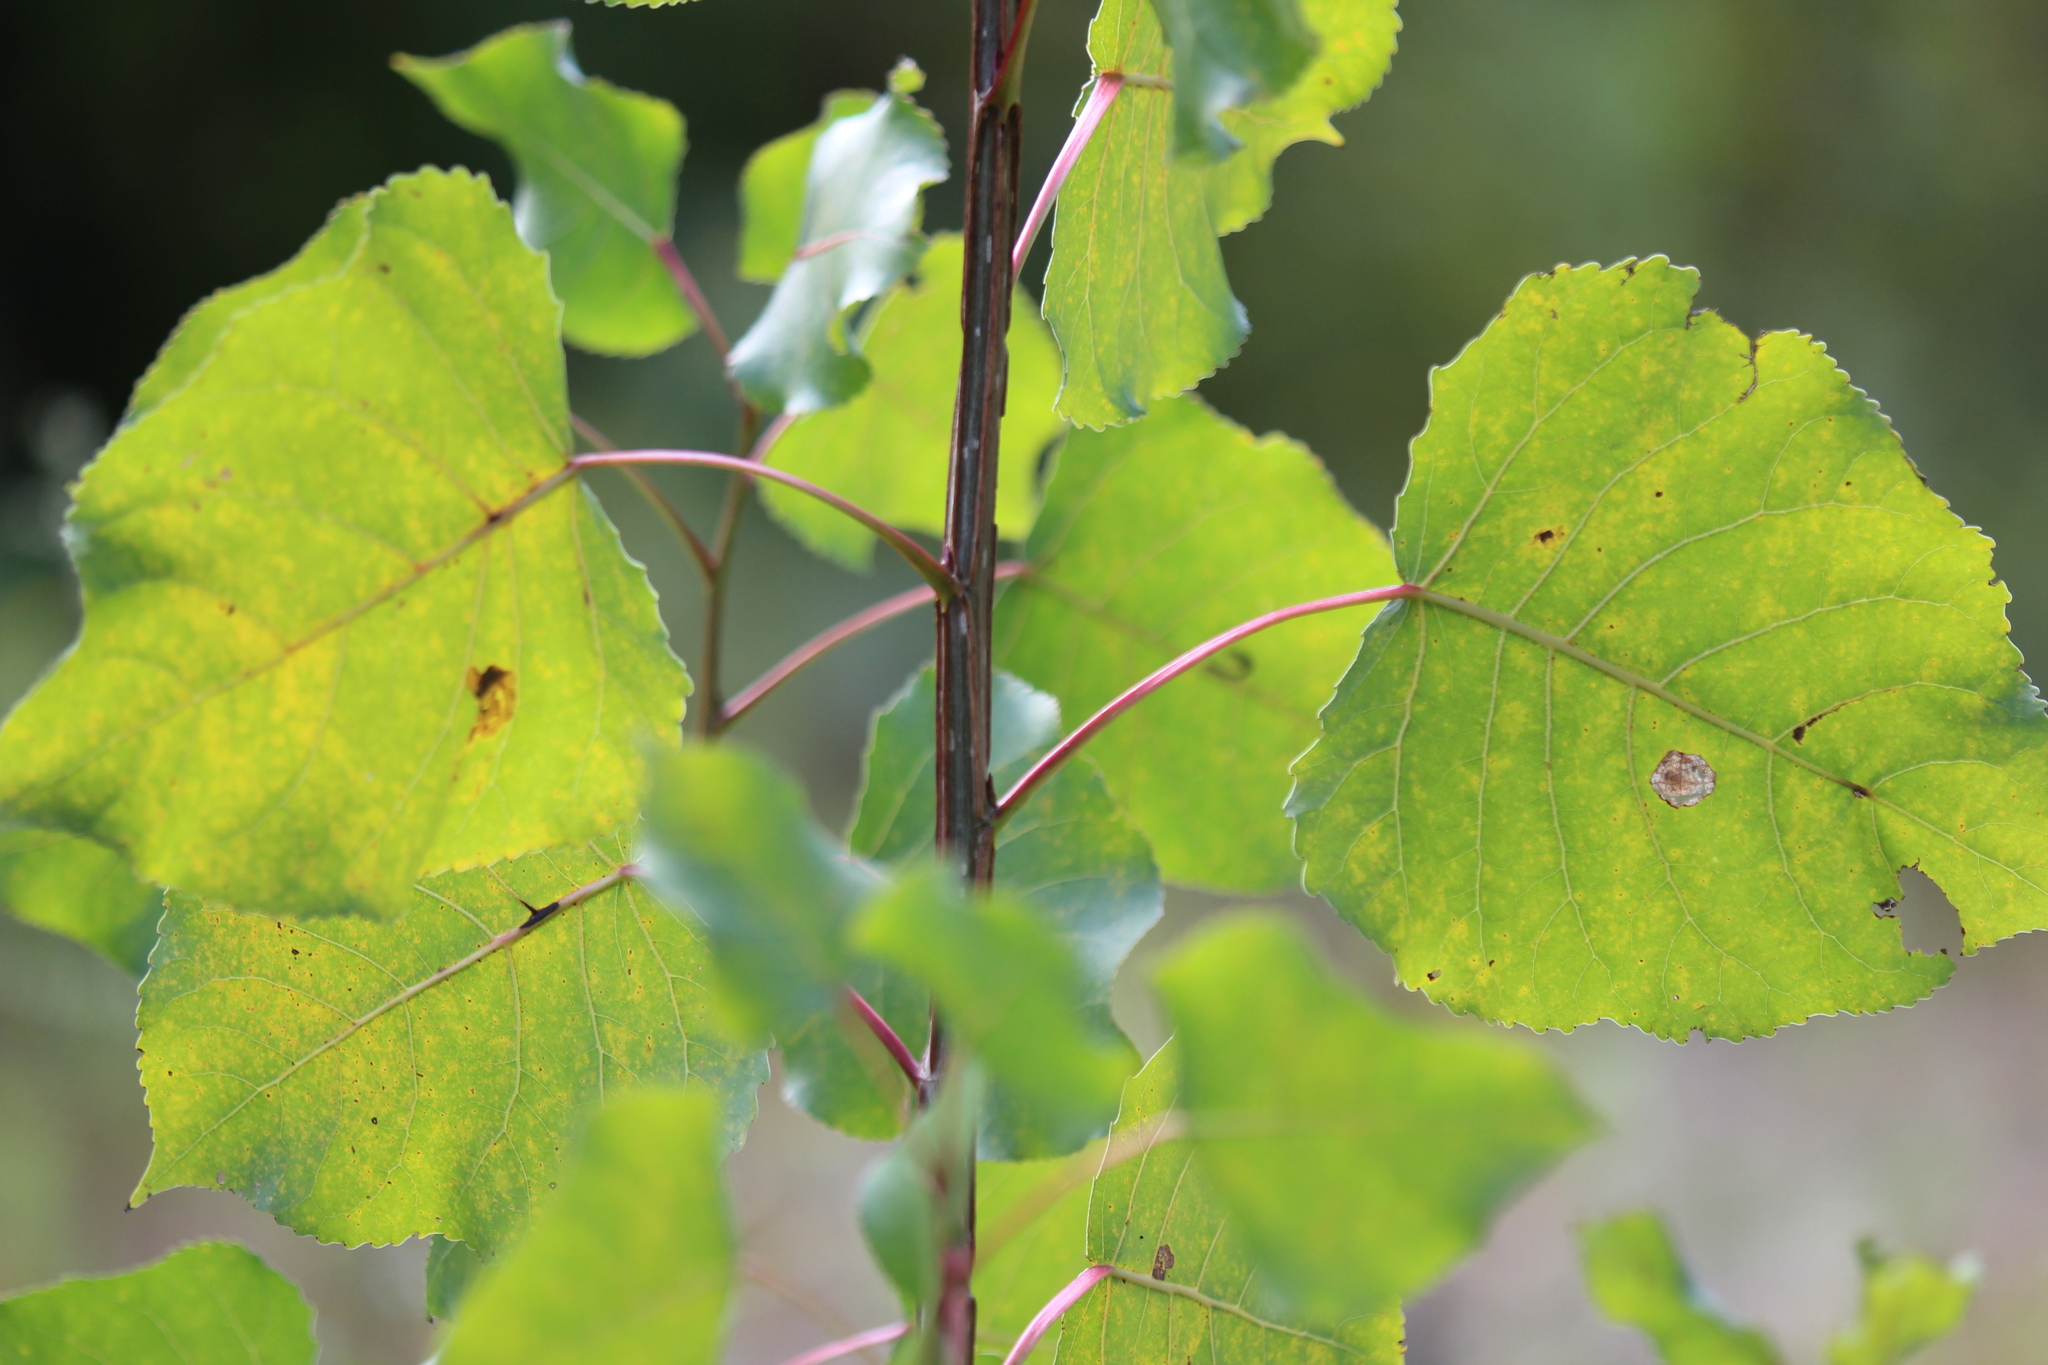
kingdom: Plantae
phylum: Tracheophyta
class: Magnoliopsida
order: Malpighiales
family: Salicaceae
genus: Populus
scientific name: Populus deltoides
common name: Eastern cottonwood
